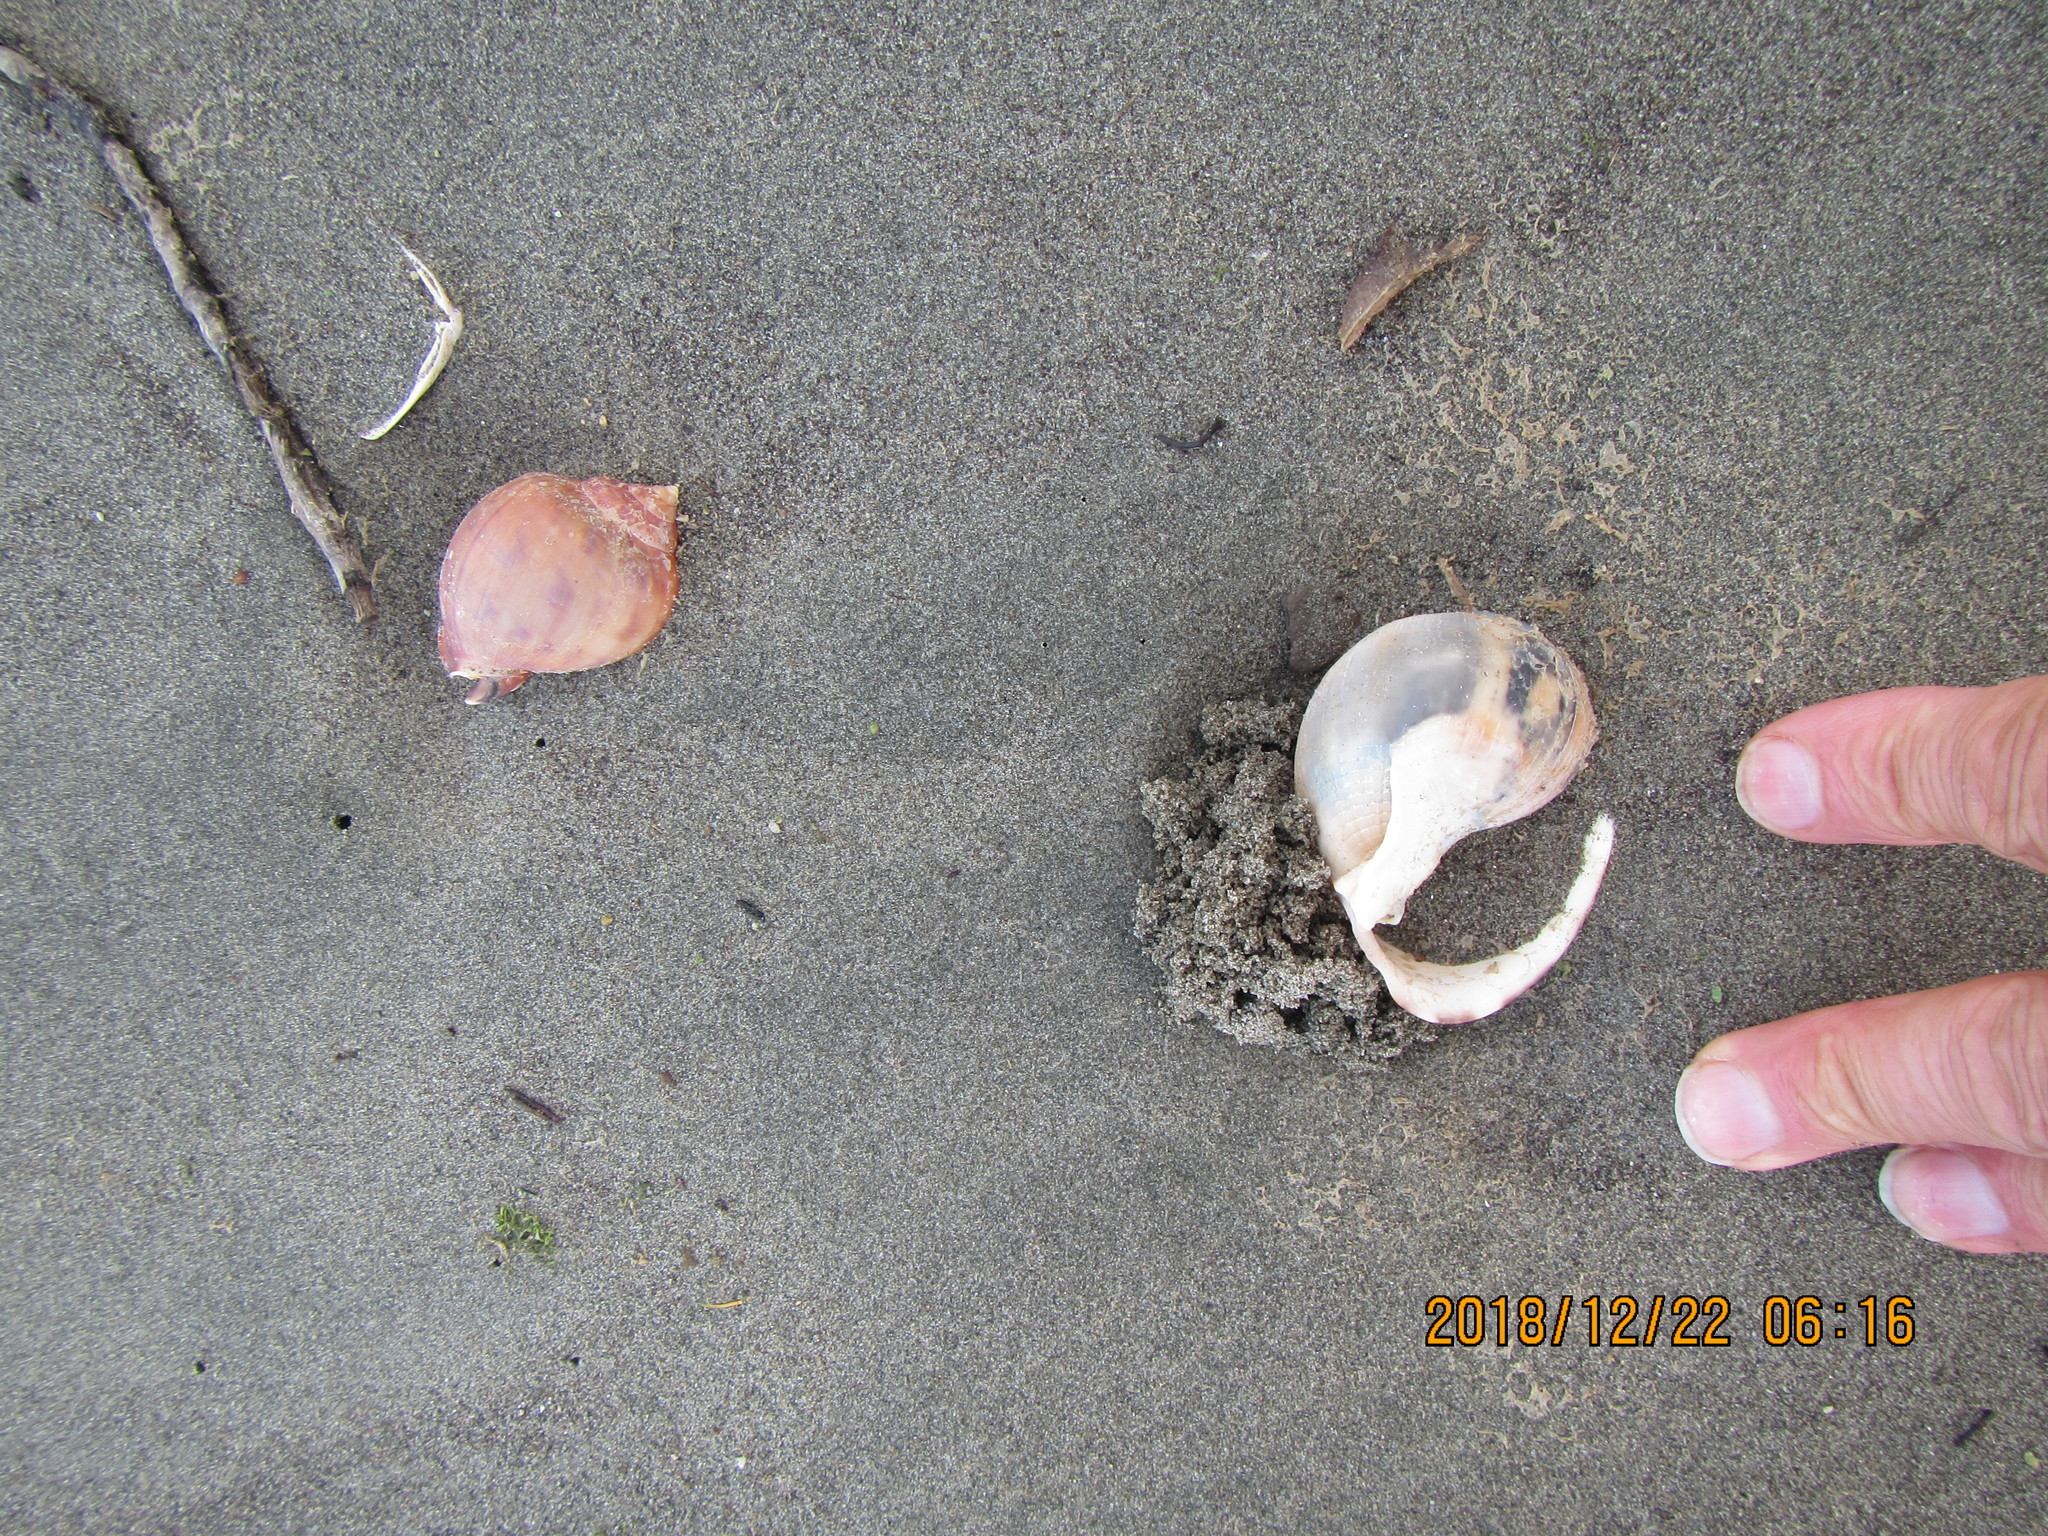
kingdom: Animalia
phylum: Mollusca
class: Gastropoda
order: Littorinimorpha
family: Cassidae
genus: Semicassis
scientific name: Semicassis pyrum
